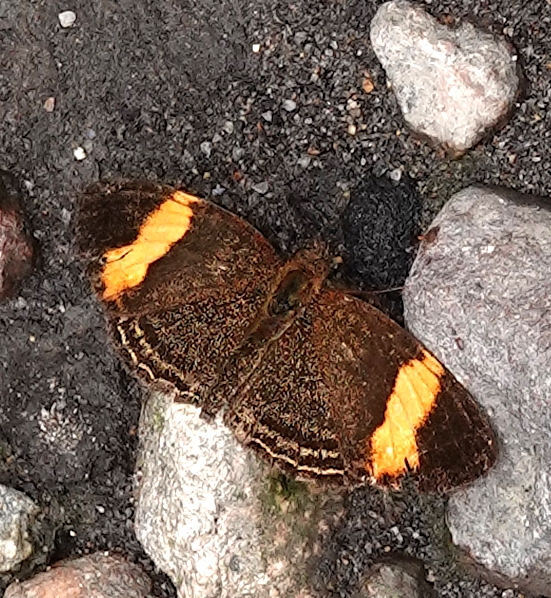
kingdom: Animalia
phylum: Arthropoda
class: Insecta
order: Lepidoptera
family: Nymphalidae
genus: Telenassa
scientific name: Telenassa jana
